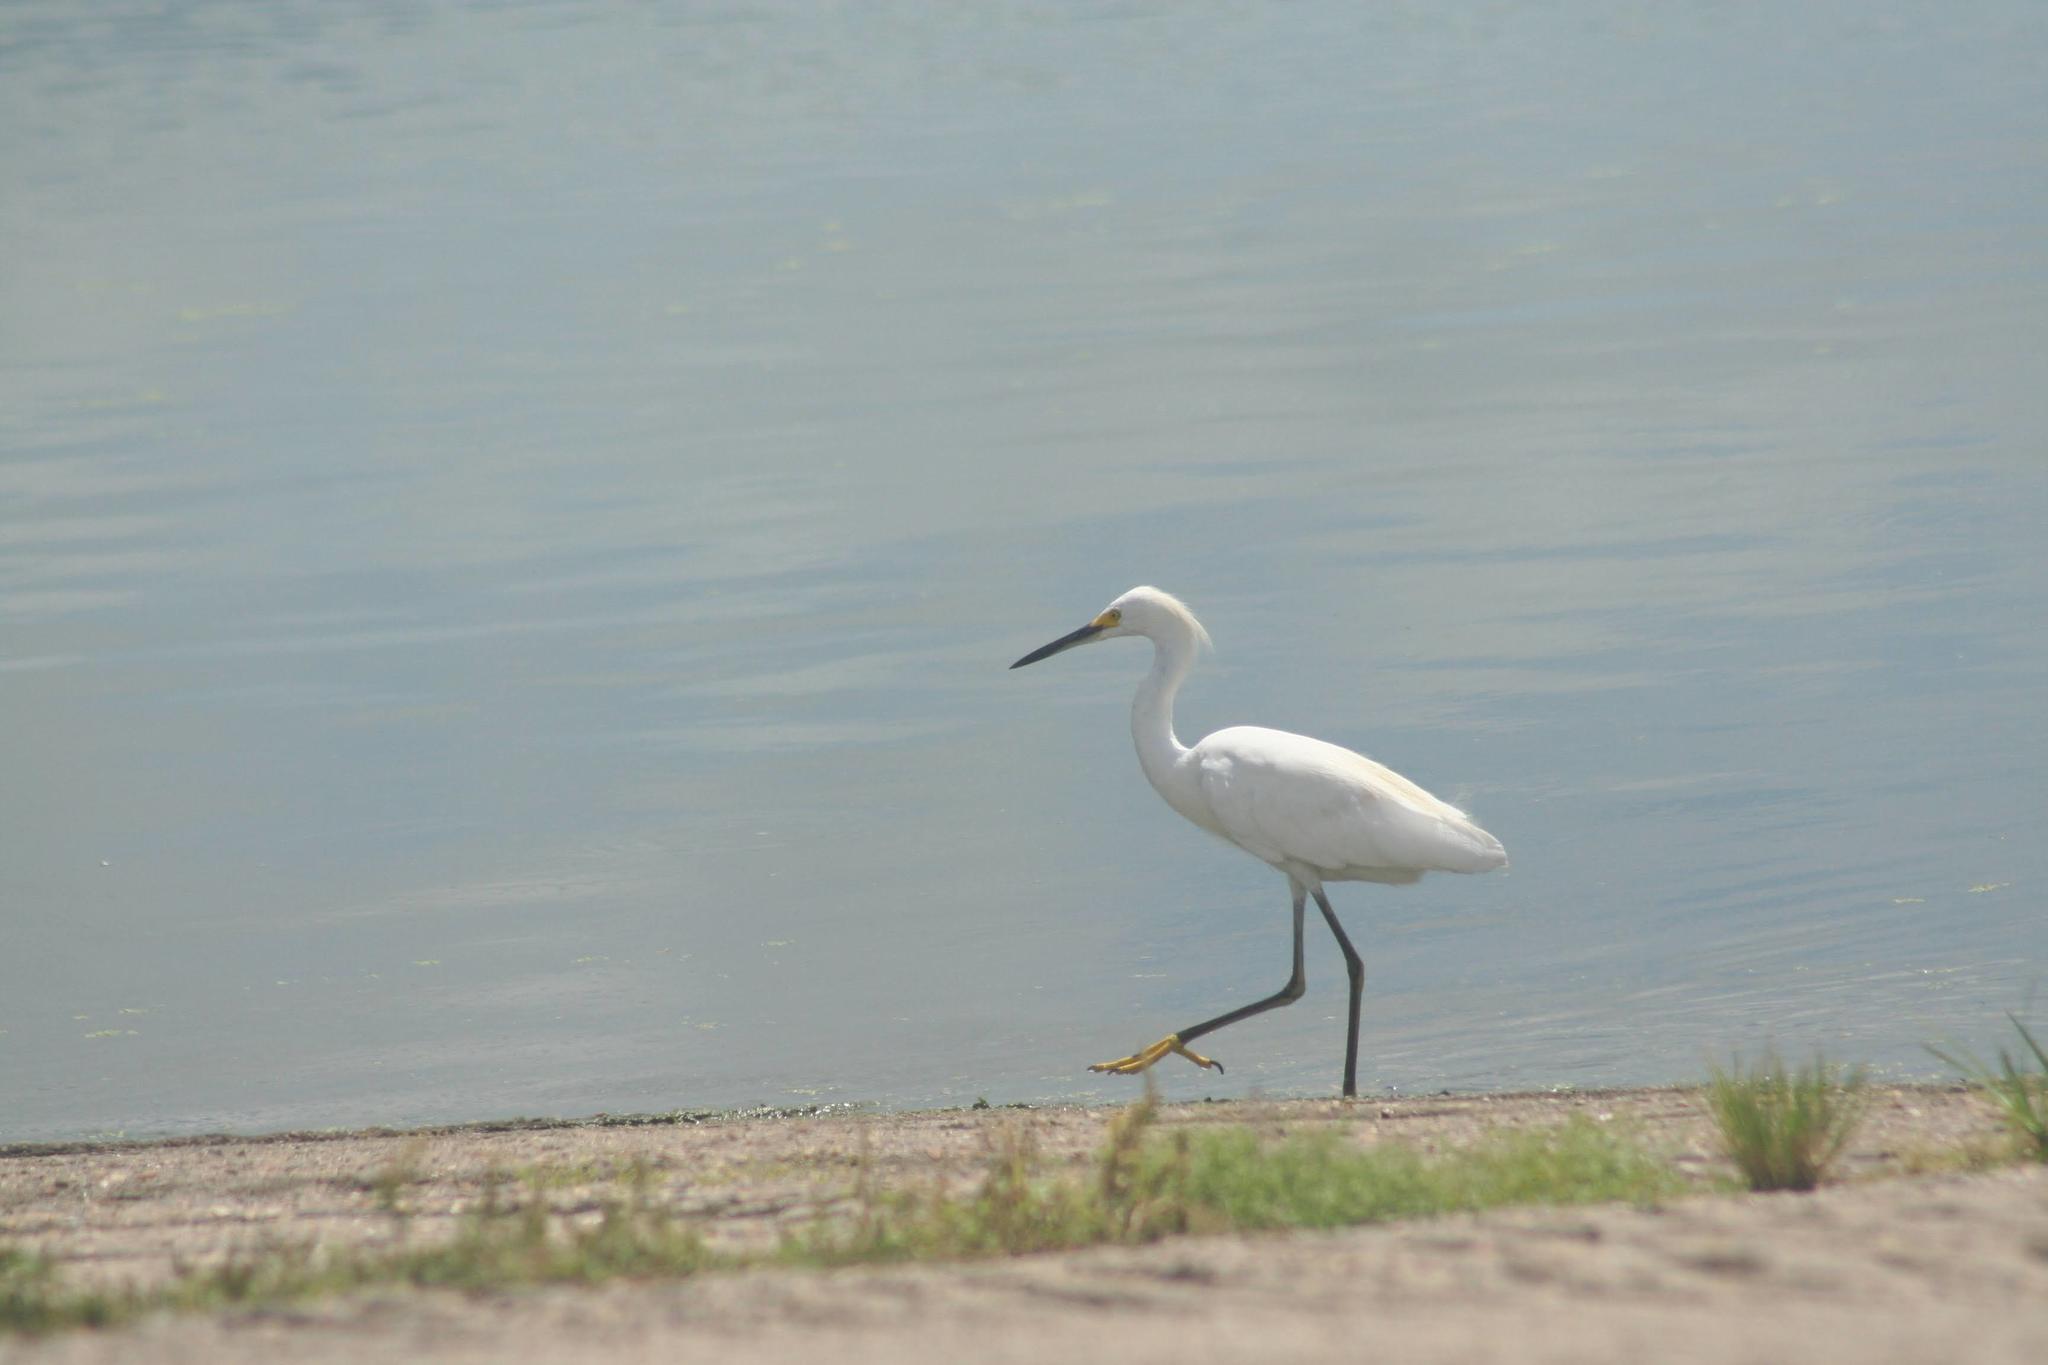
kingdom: Animalia
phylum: Chordata
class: Aves
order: Pelecaniformes
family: Ardeidae
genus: Egretta
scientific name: Egretta thula
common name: Snowy egret
